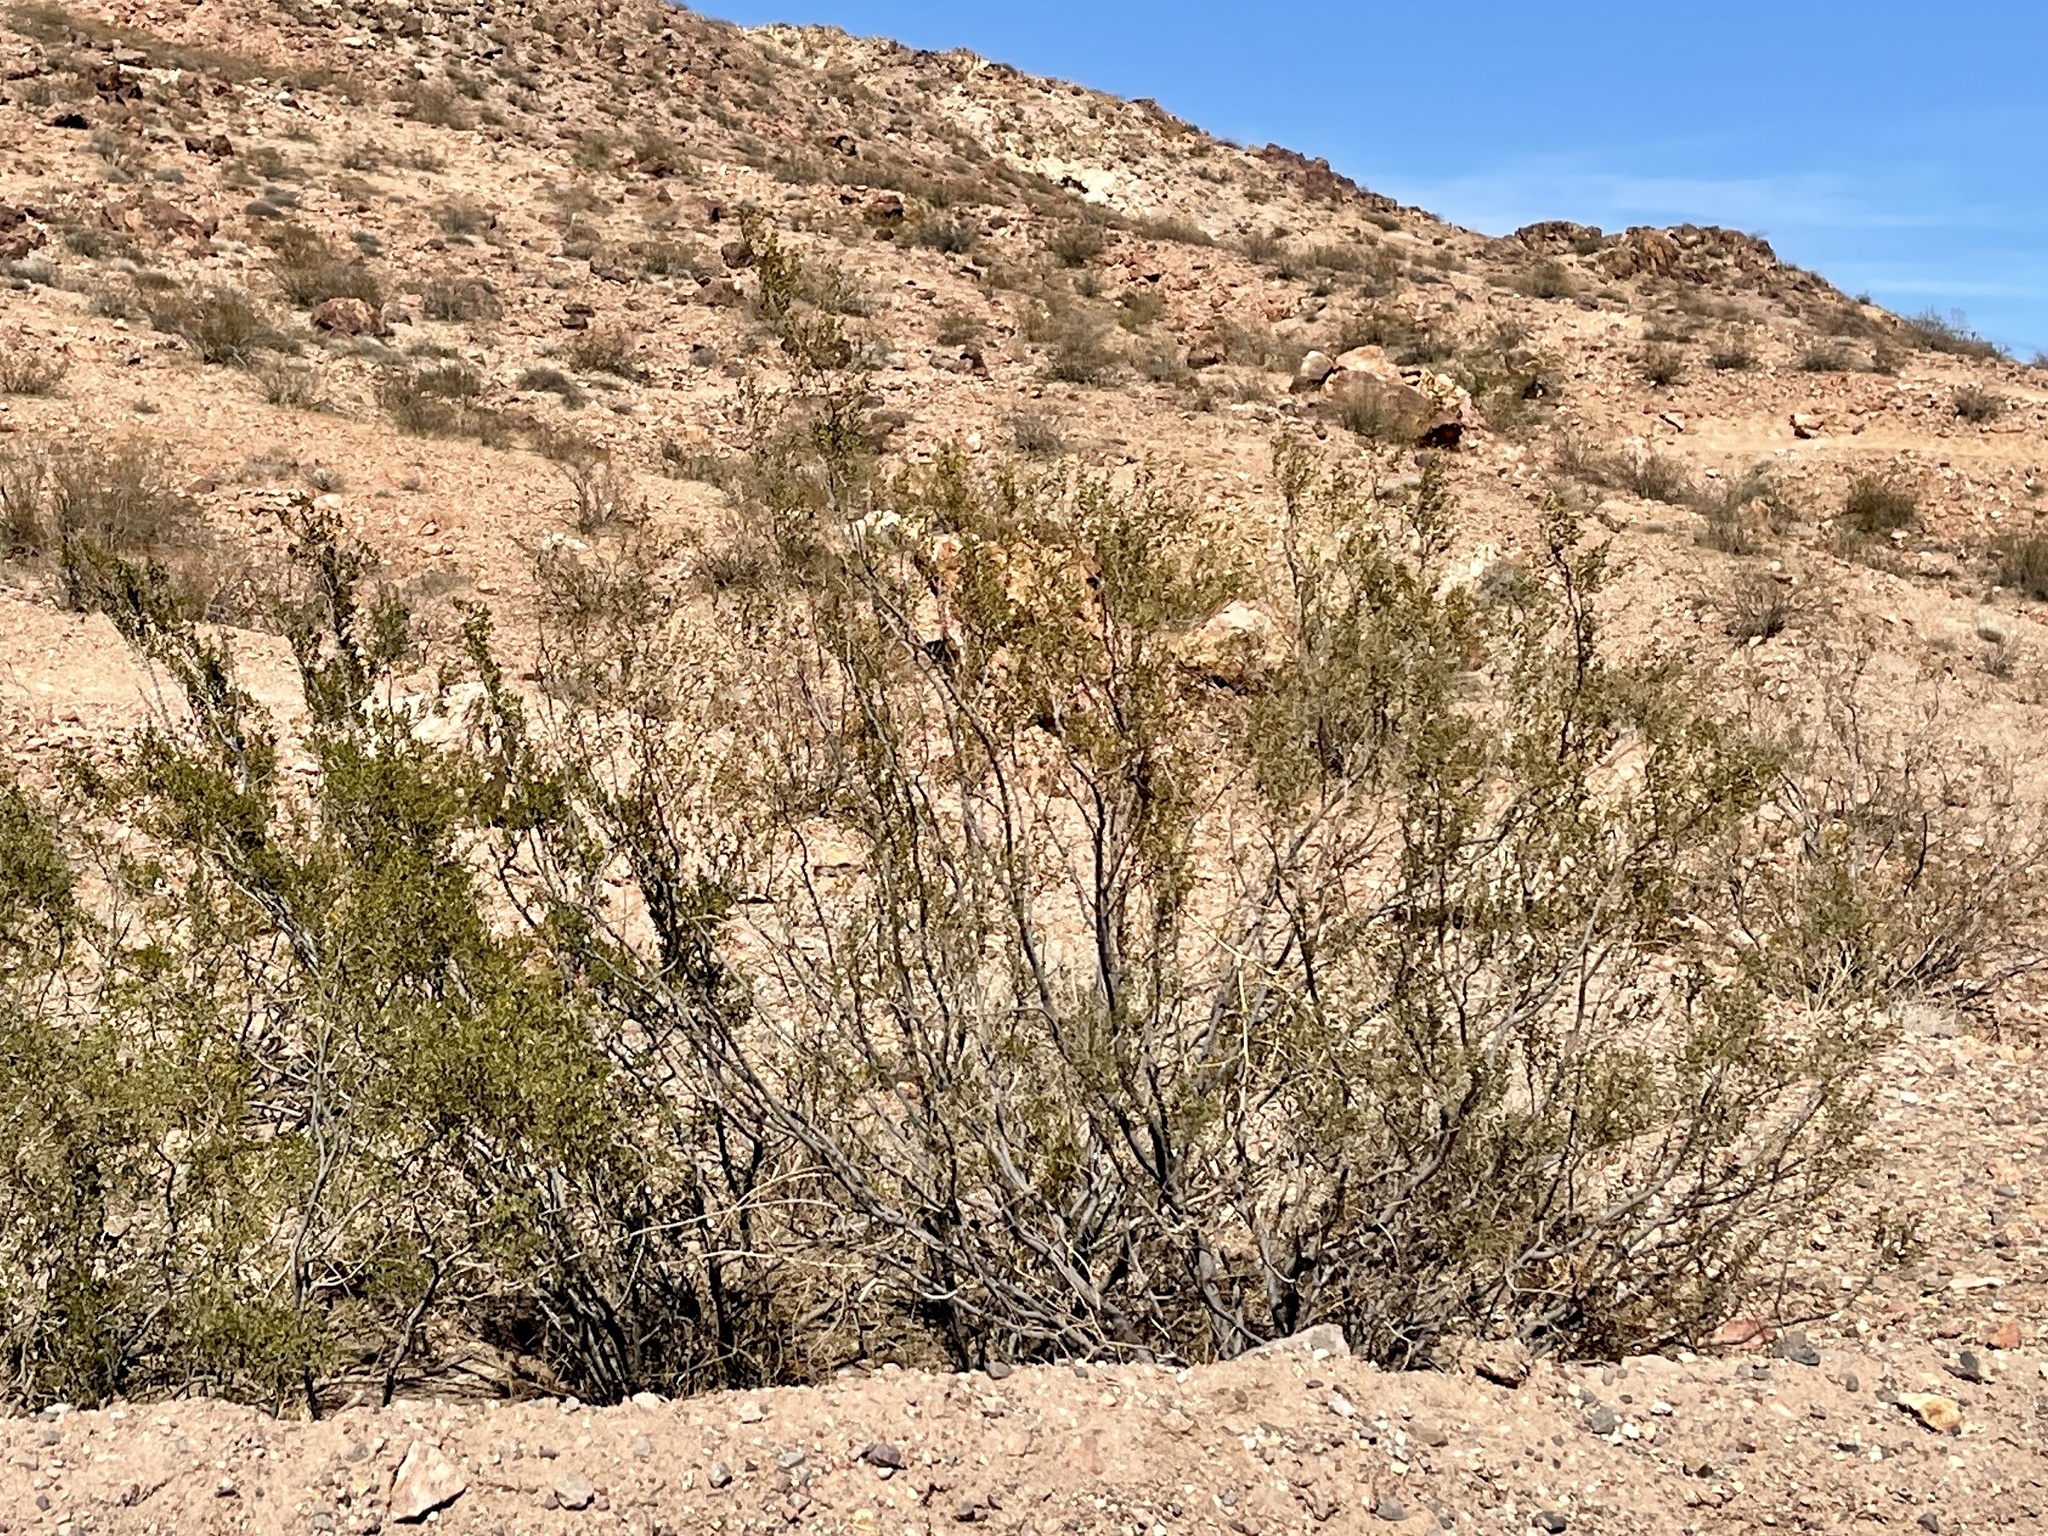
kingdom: Plantae
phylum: Tracheophyta
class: Magnoliopsida
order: Zygophyllales
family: Zygophyllaceae
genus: Larrea
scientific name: Larrea tridentata
